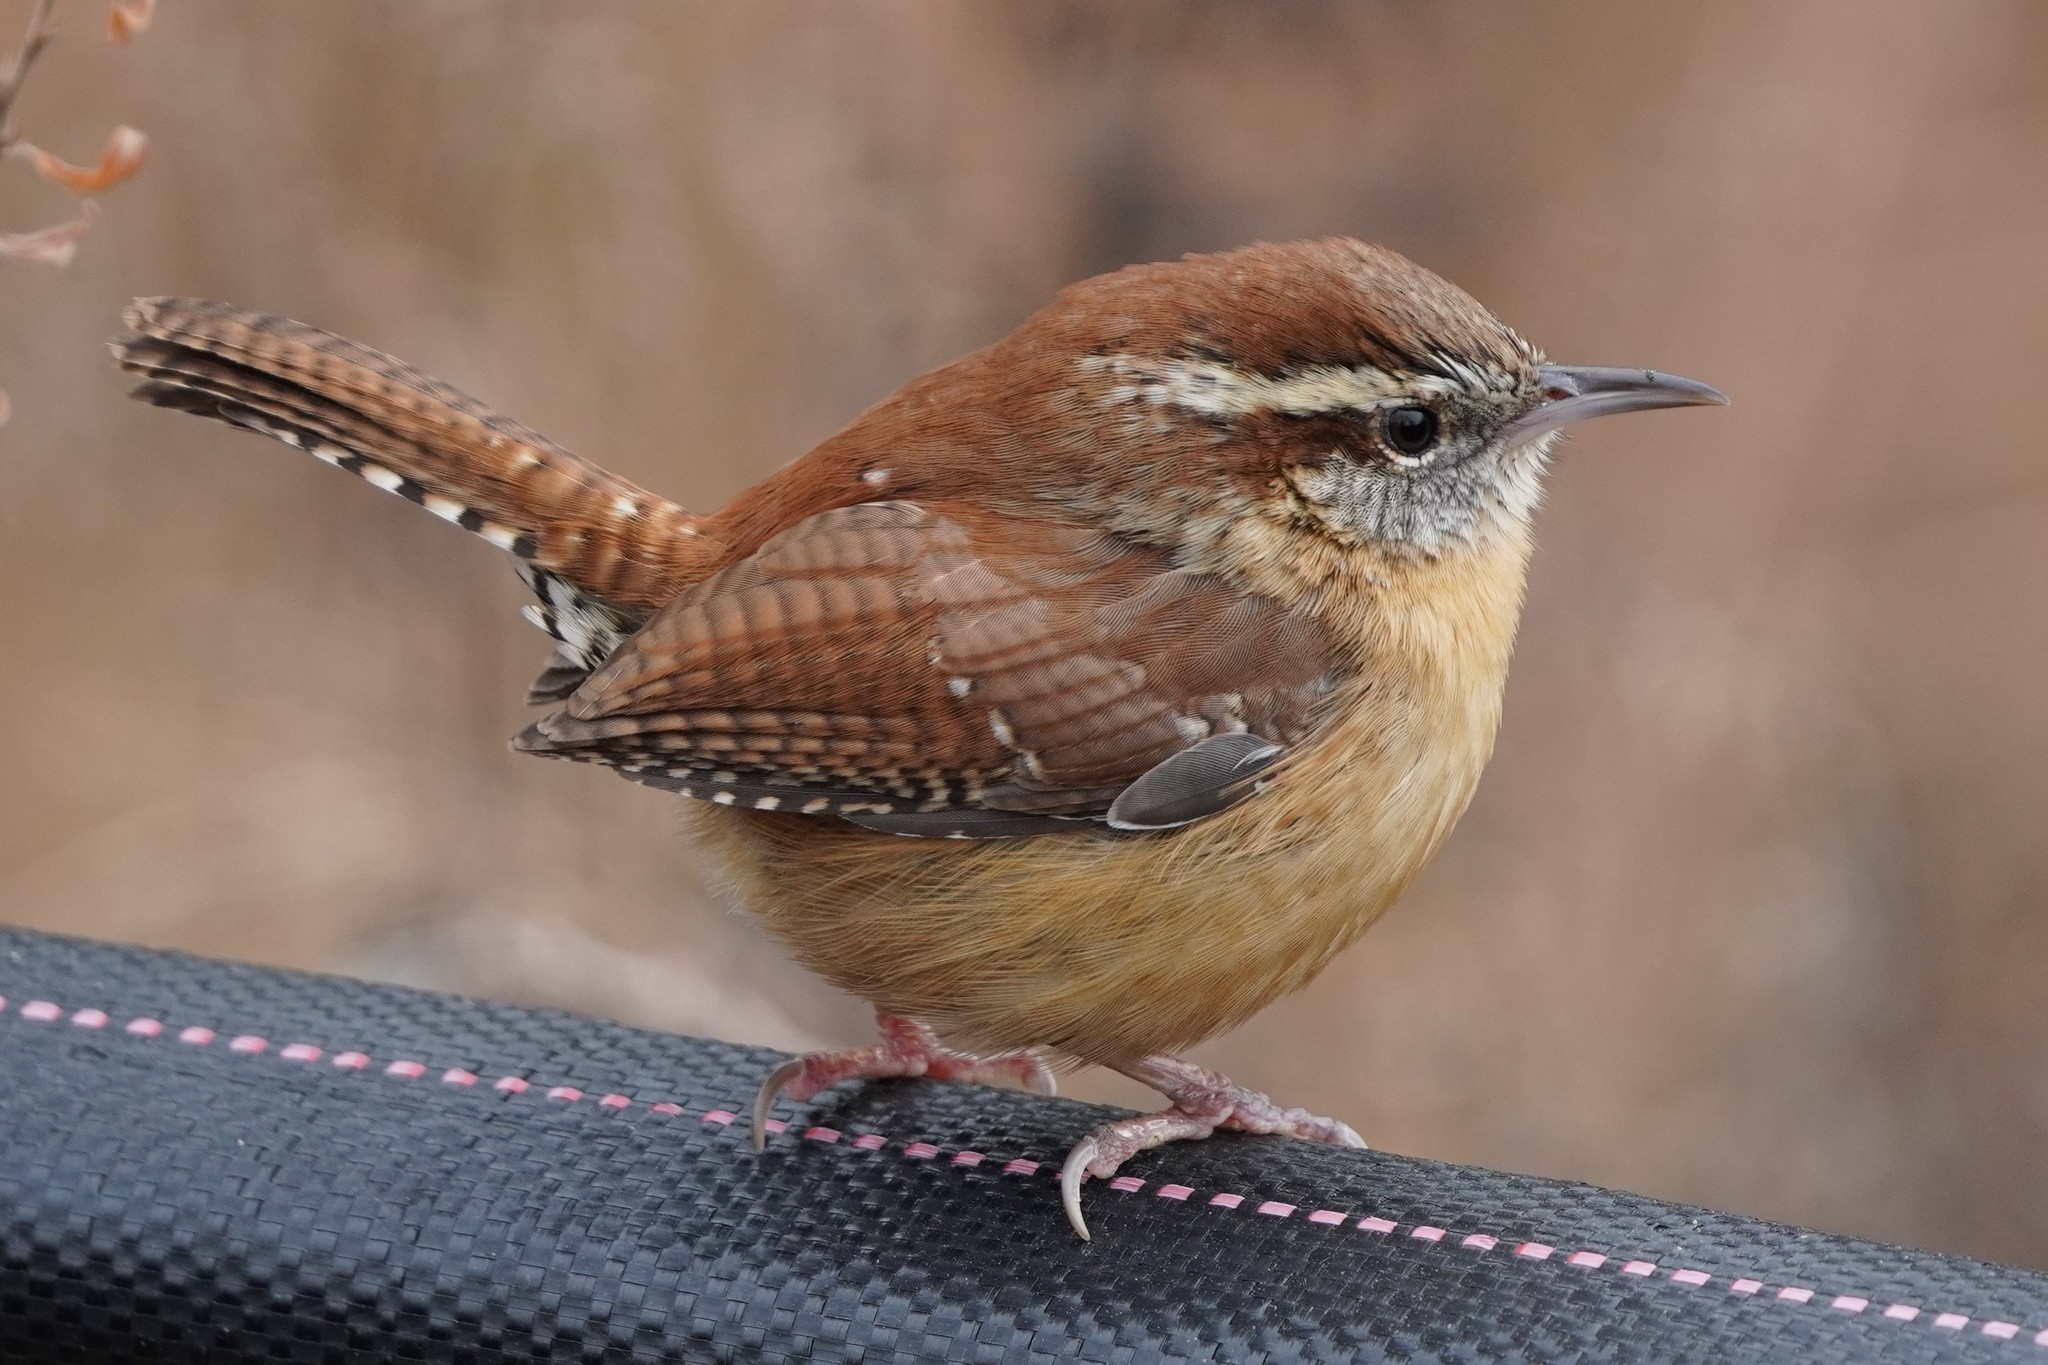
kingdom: Animalia
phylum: Chordata
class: Aves
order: Passeriformes
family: Troglodytidae
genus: Thryothorus
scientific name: Thryothorus ludovicianus
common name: Carolina wren
